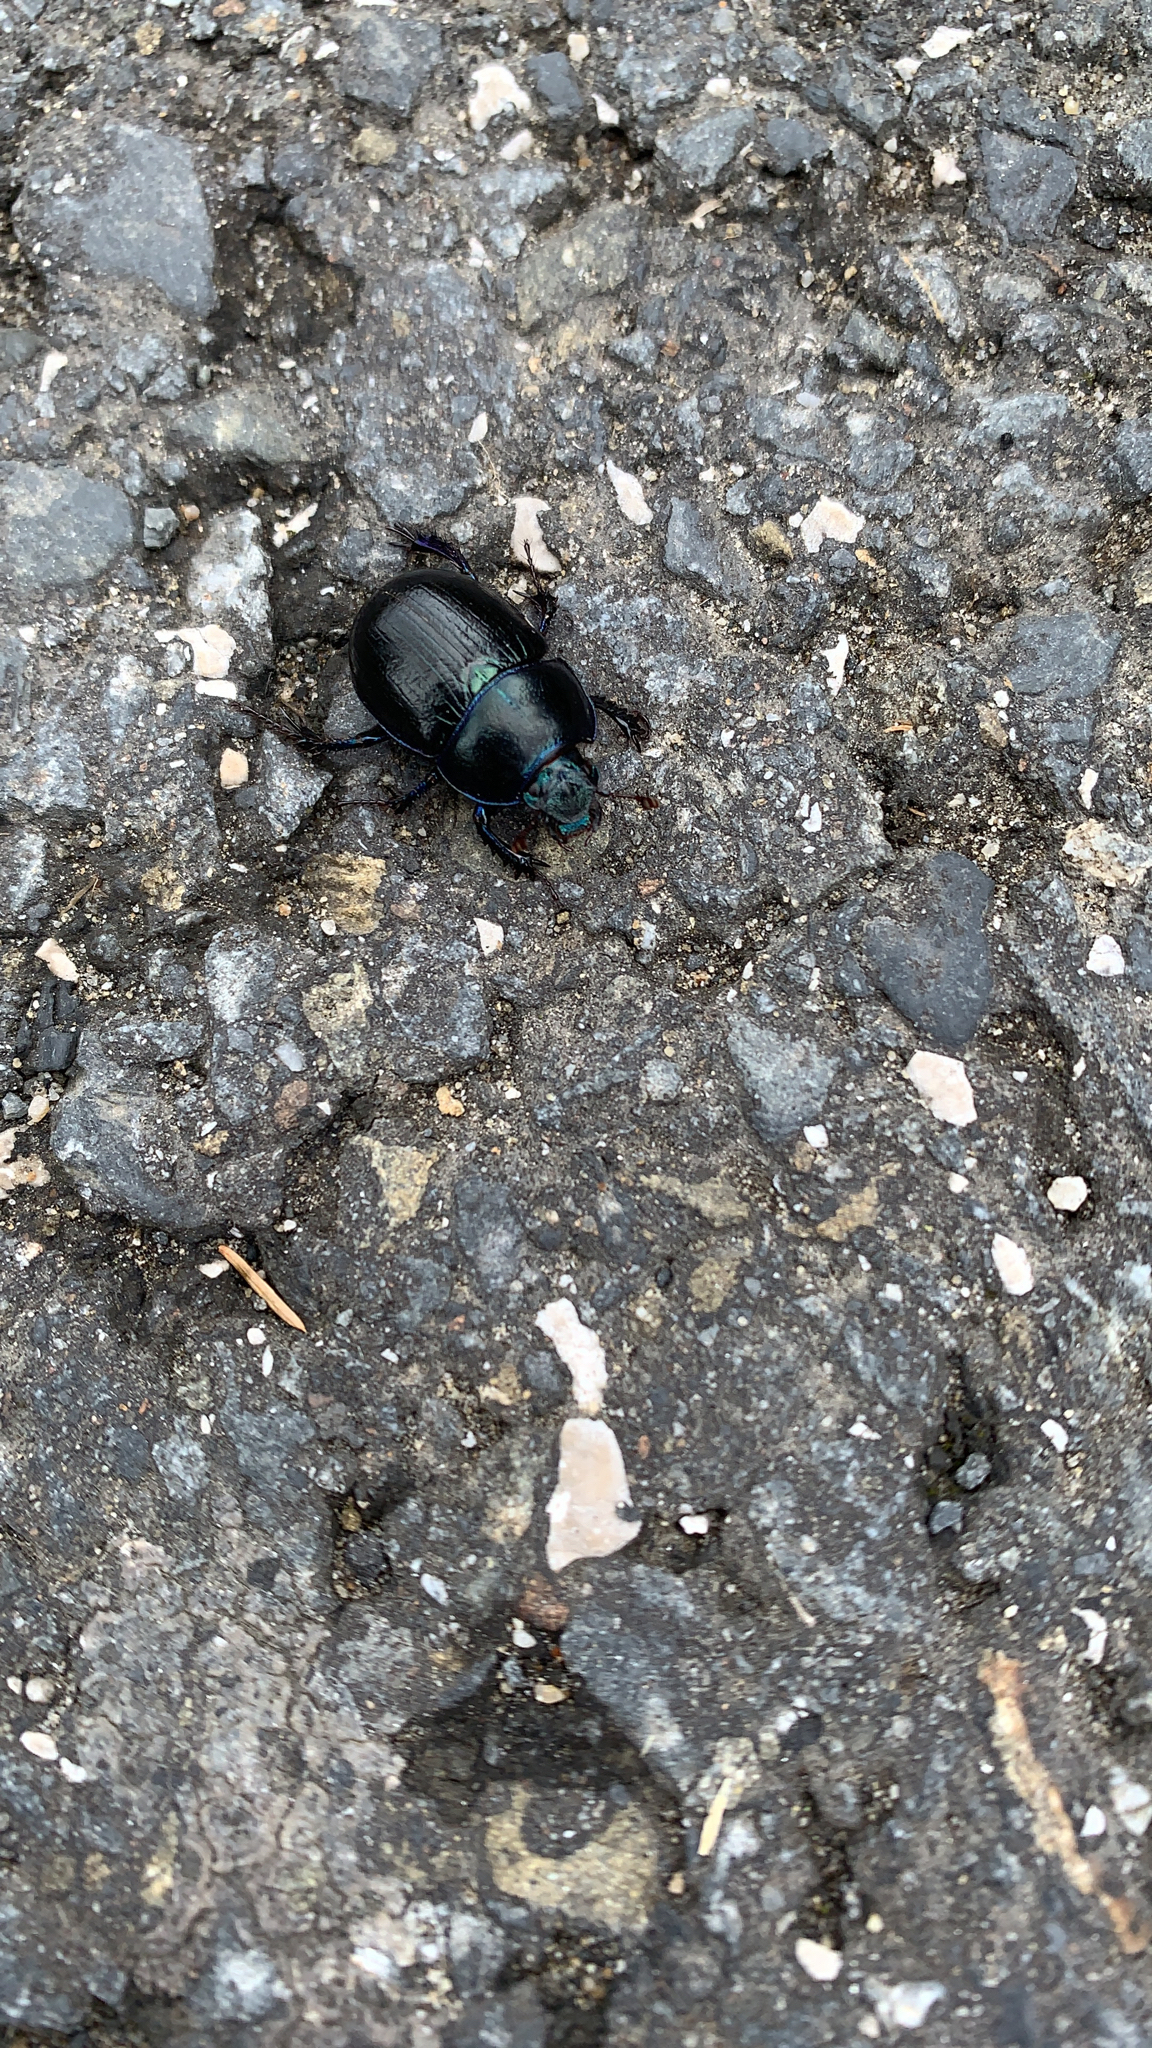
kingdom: Animalia
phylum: Arthropoda
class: Insecta
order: Coleoptera
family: Geotrupidae
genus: Anoplotrupes
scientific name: Anoplotrupes stercorosus
